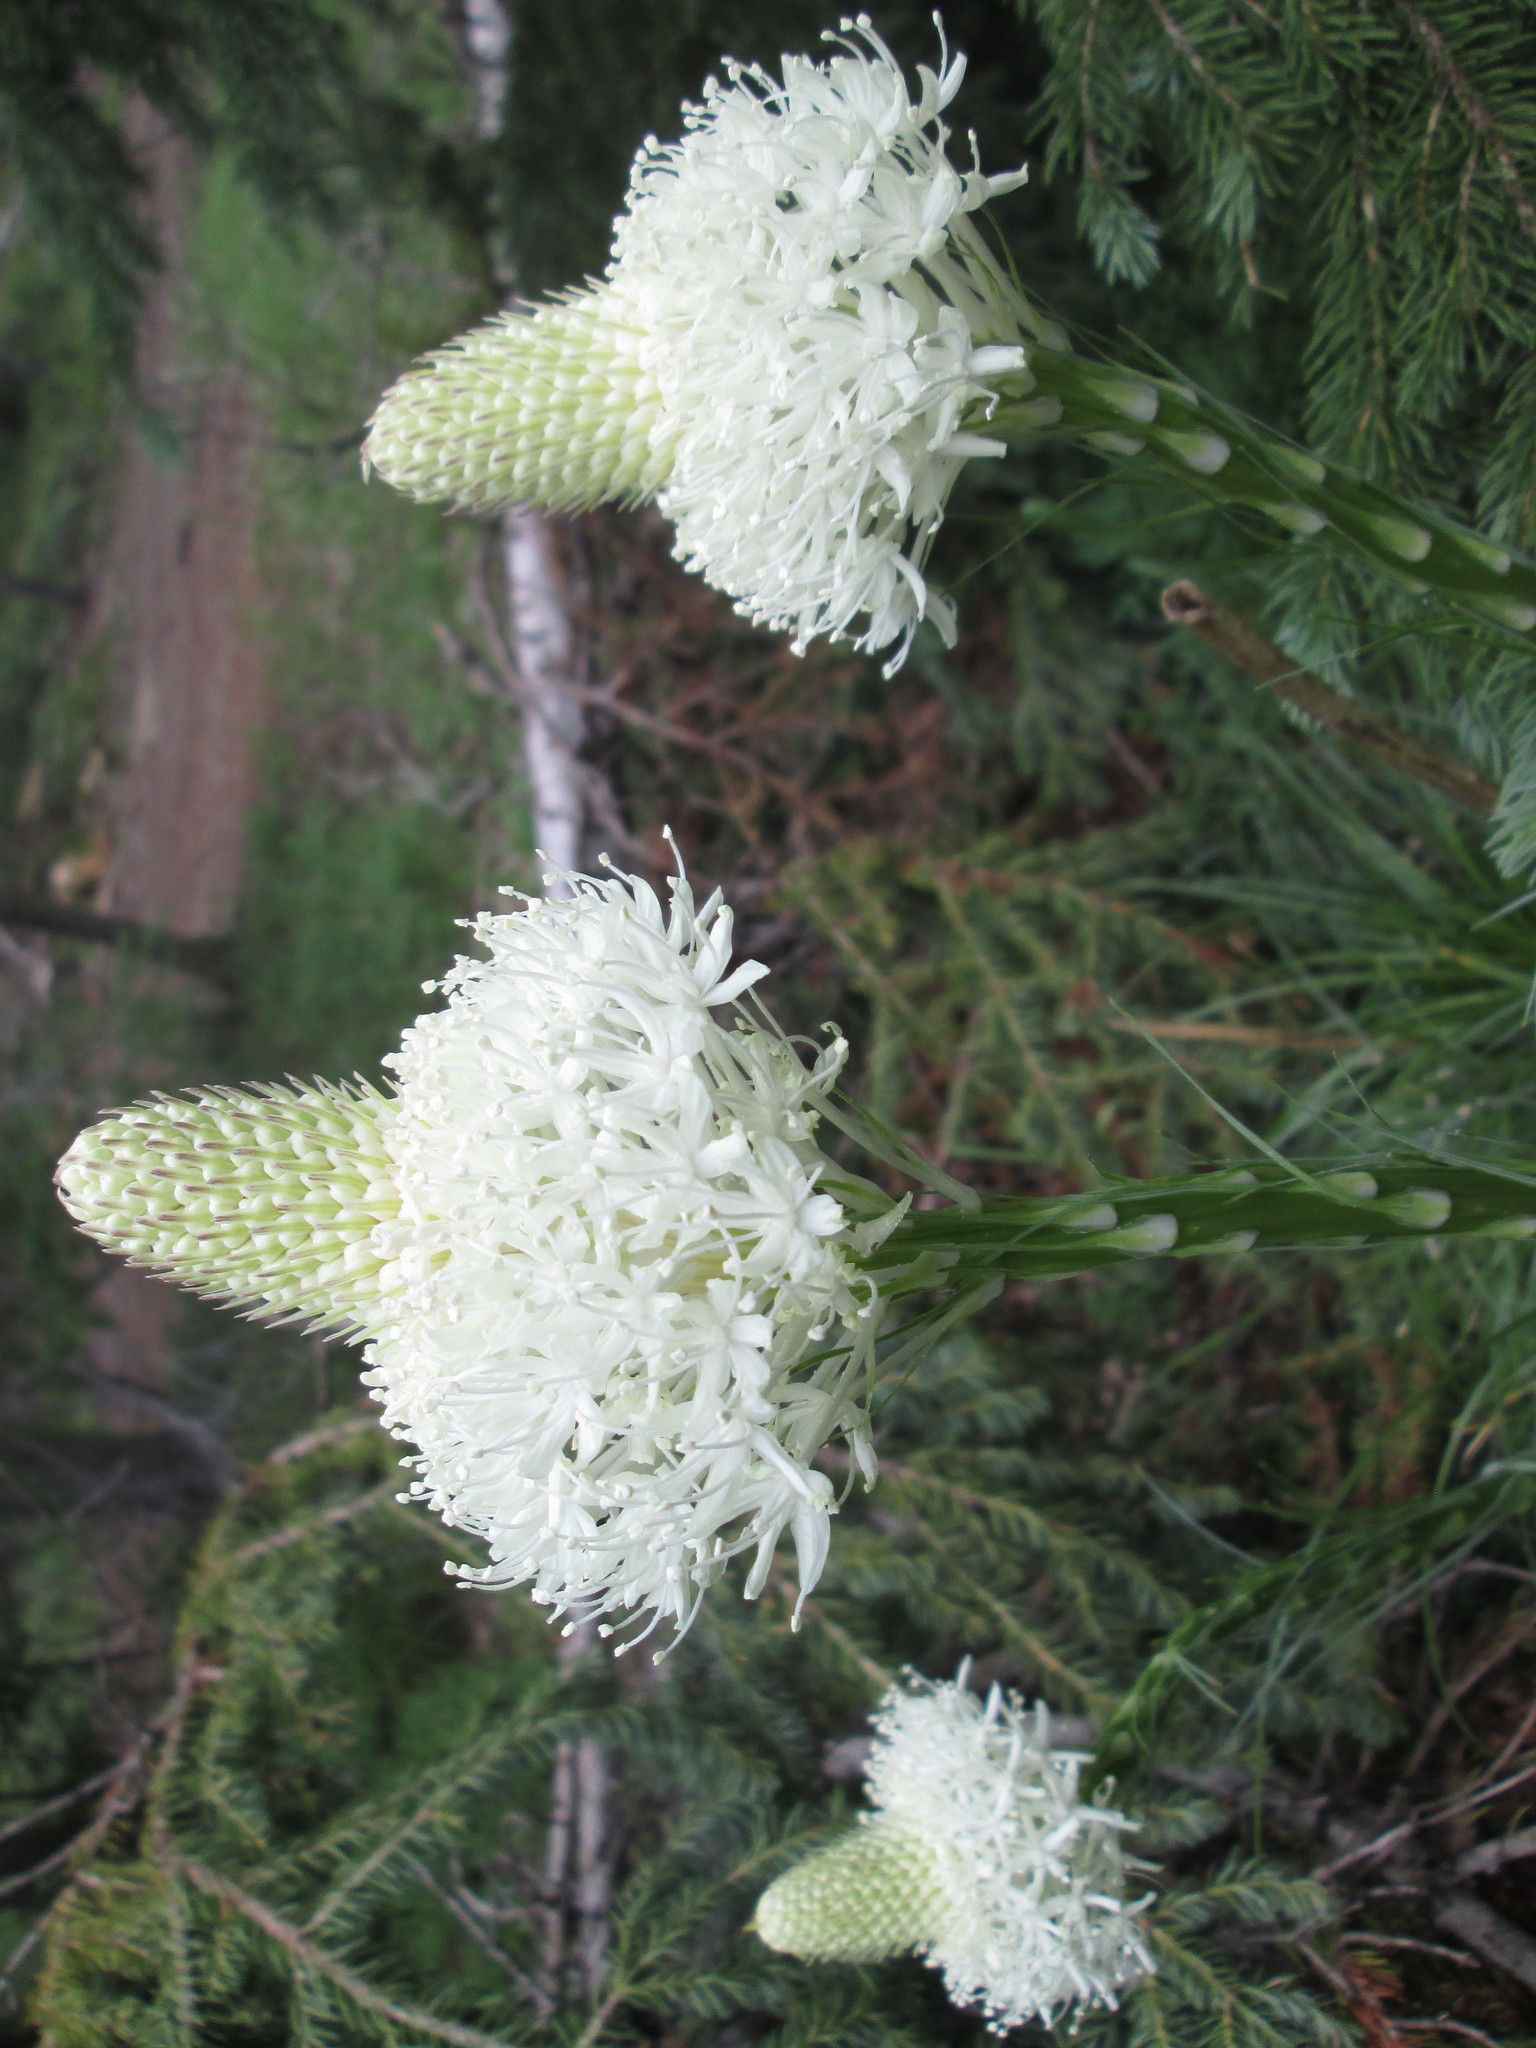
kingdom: Plantae
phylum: Tracheophyta
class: Liliopsida
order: Liliales
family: Melanthiaceae
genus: Xerophyllum
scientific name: Xerophyllum tenax
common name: Bear-grass
